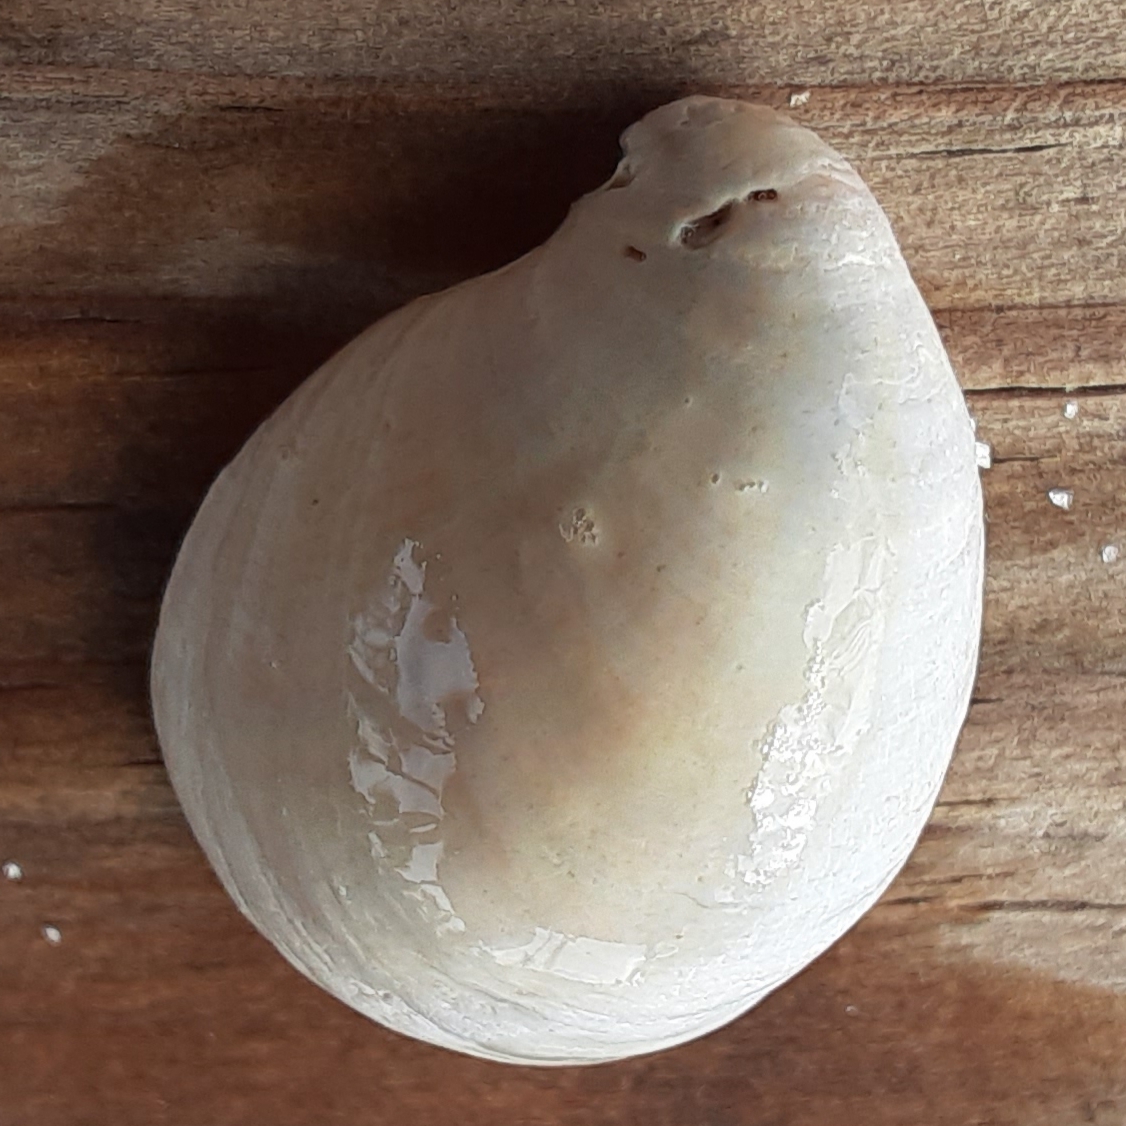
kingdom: Animalia
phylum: Mollusca
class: Gastropoda
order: Littorinimorpha
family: Calyptraeidae
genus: Crepidula
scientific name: Crepidula fornicata
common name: Slipper limpet
